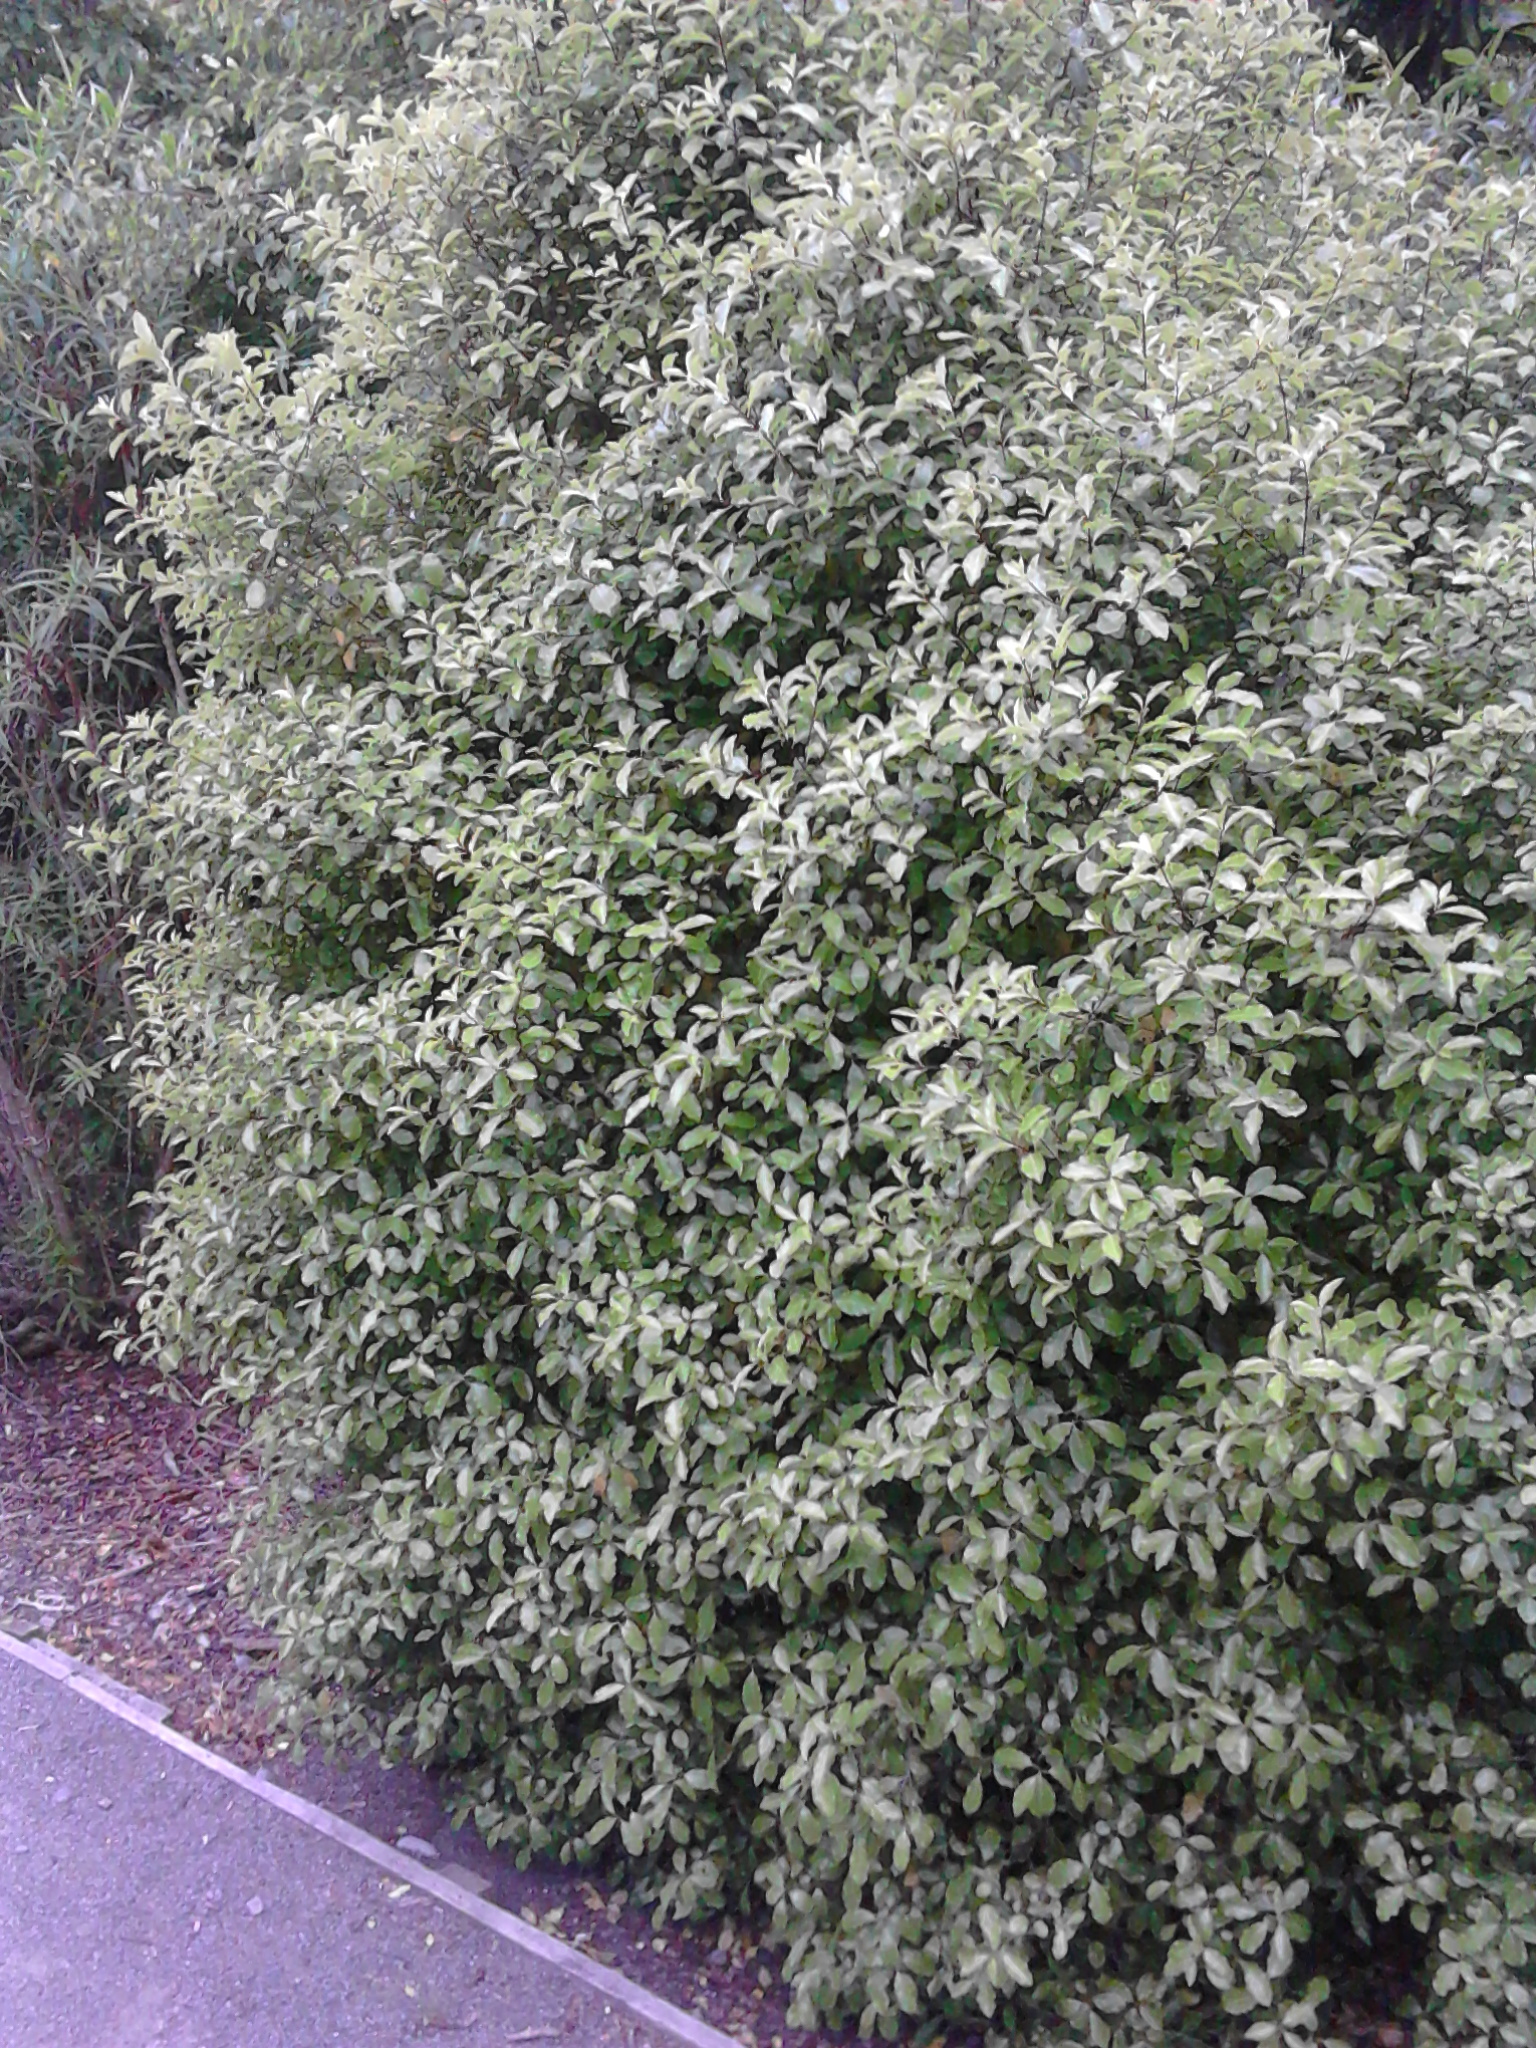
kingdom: Plantae
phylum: Tracheophyta
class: Magnoliopsida
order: Apiales
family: Pittosporaceae
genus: Pittosporum
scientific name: Pittosporum tenuifolium
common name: Kohuhu
